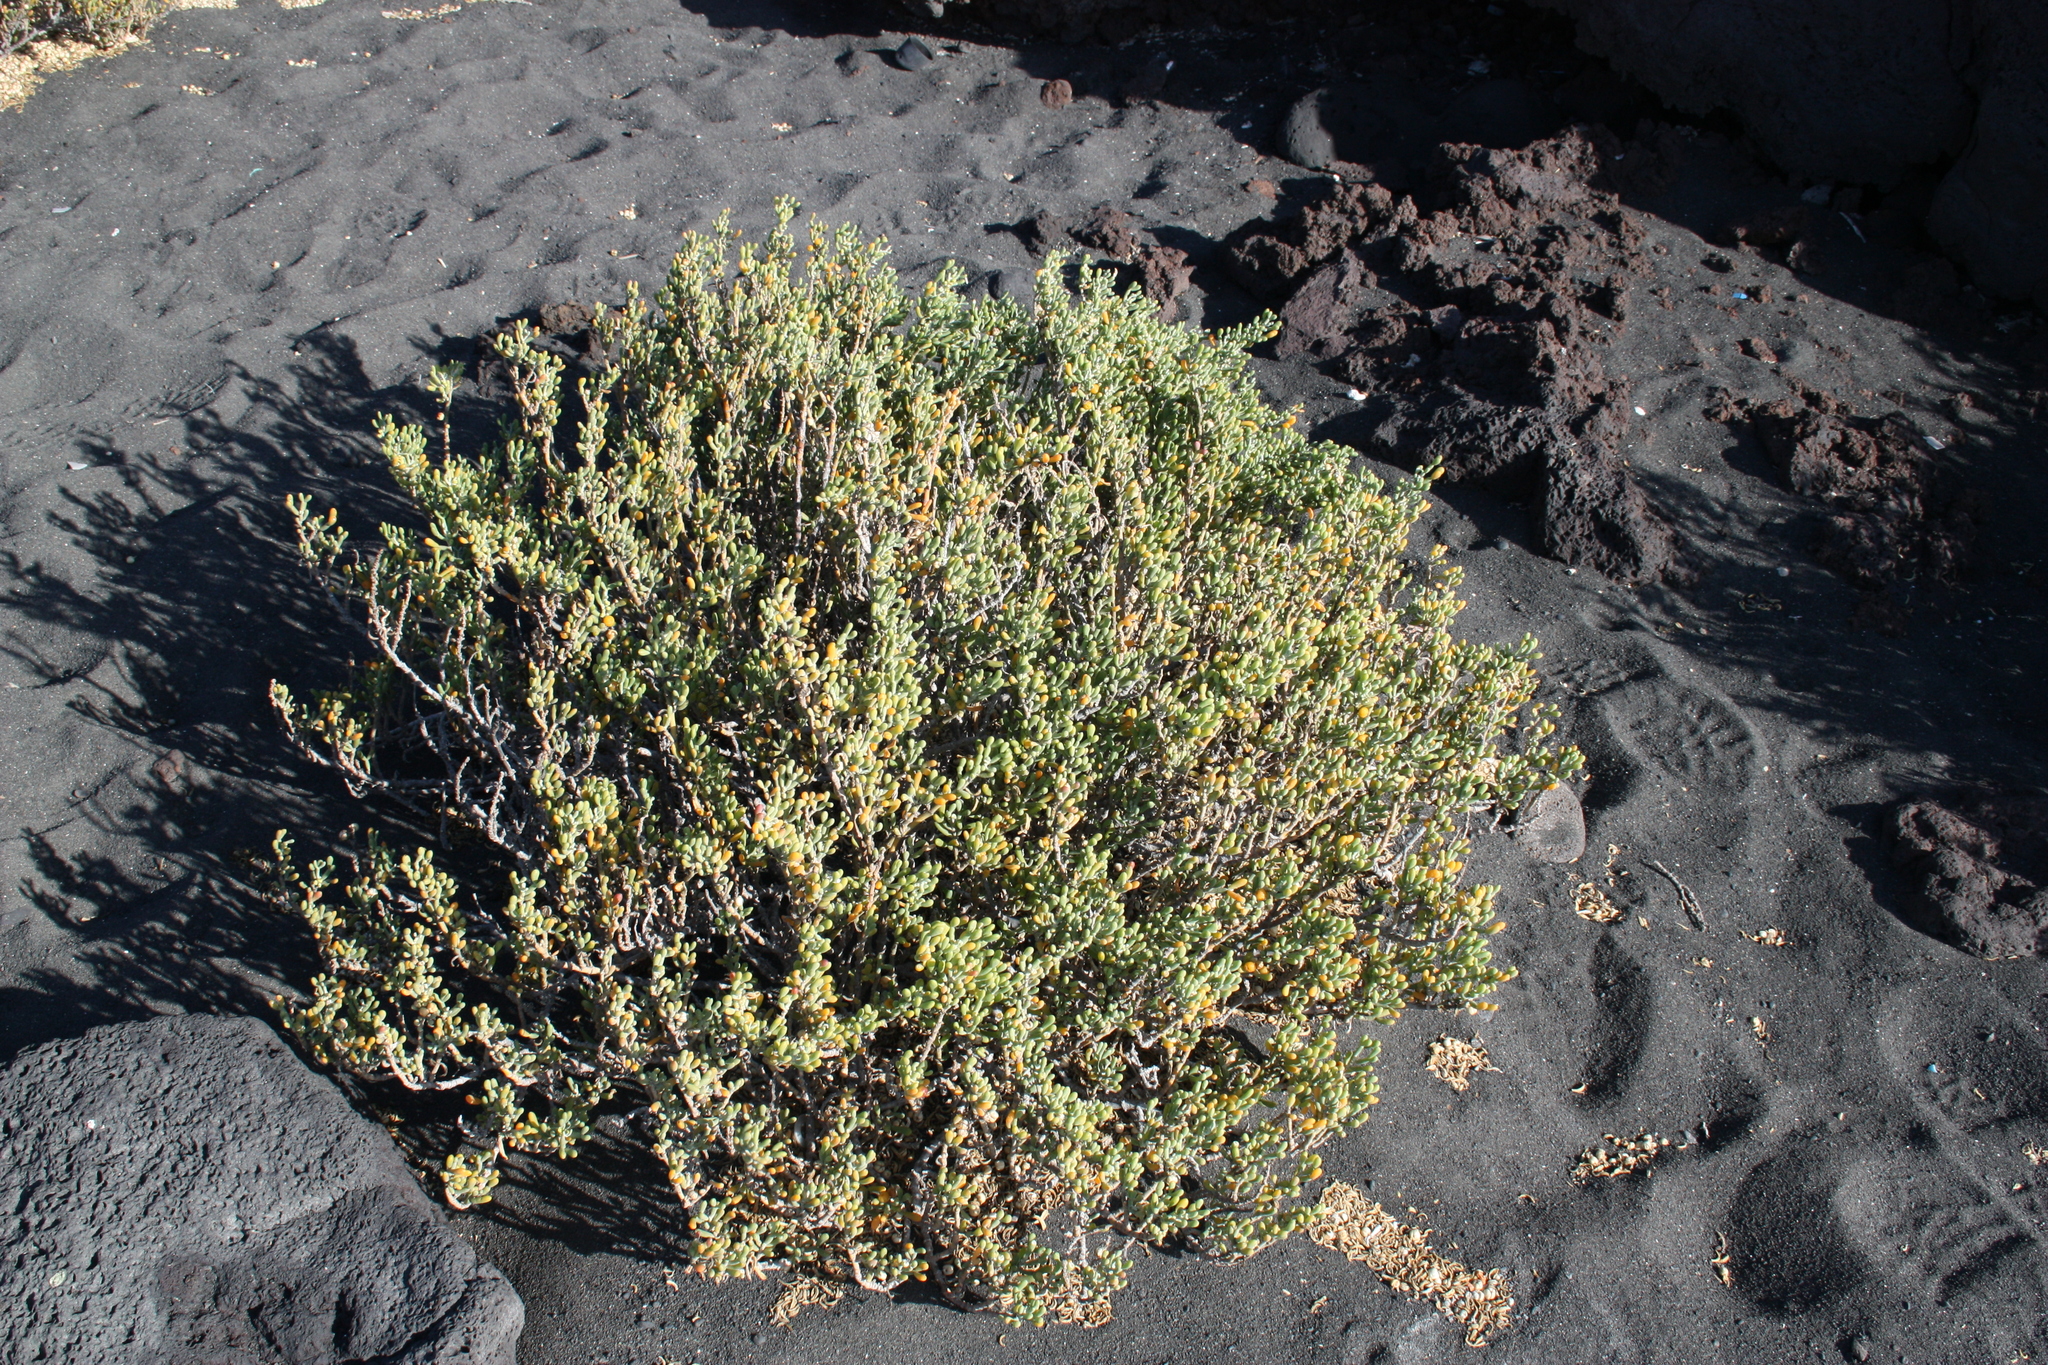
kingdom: Plantae
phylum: Tracheophyta
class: Magnoliopsida
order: Zygophyllales
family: Zygophyllaceae
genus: Tetraena
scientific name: Tetraena fontanesii
